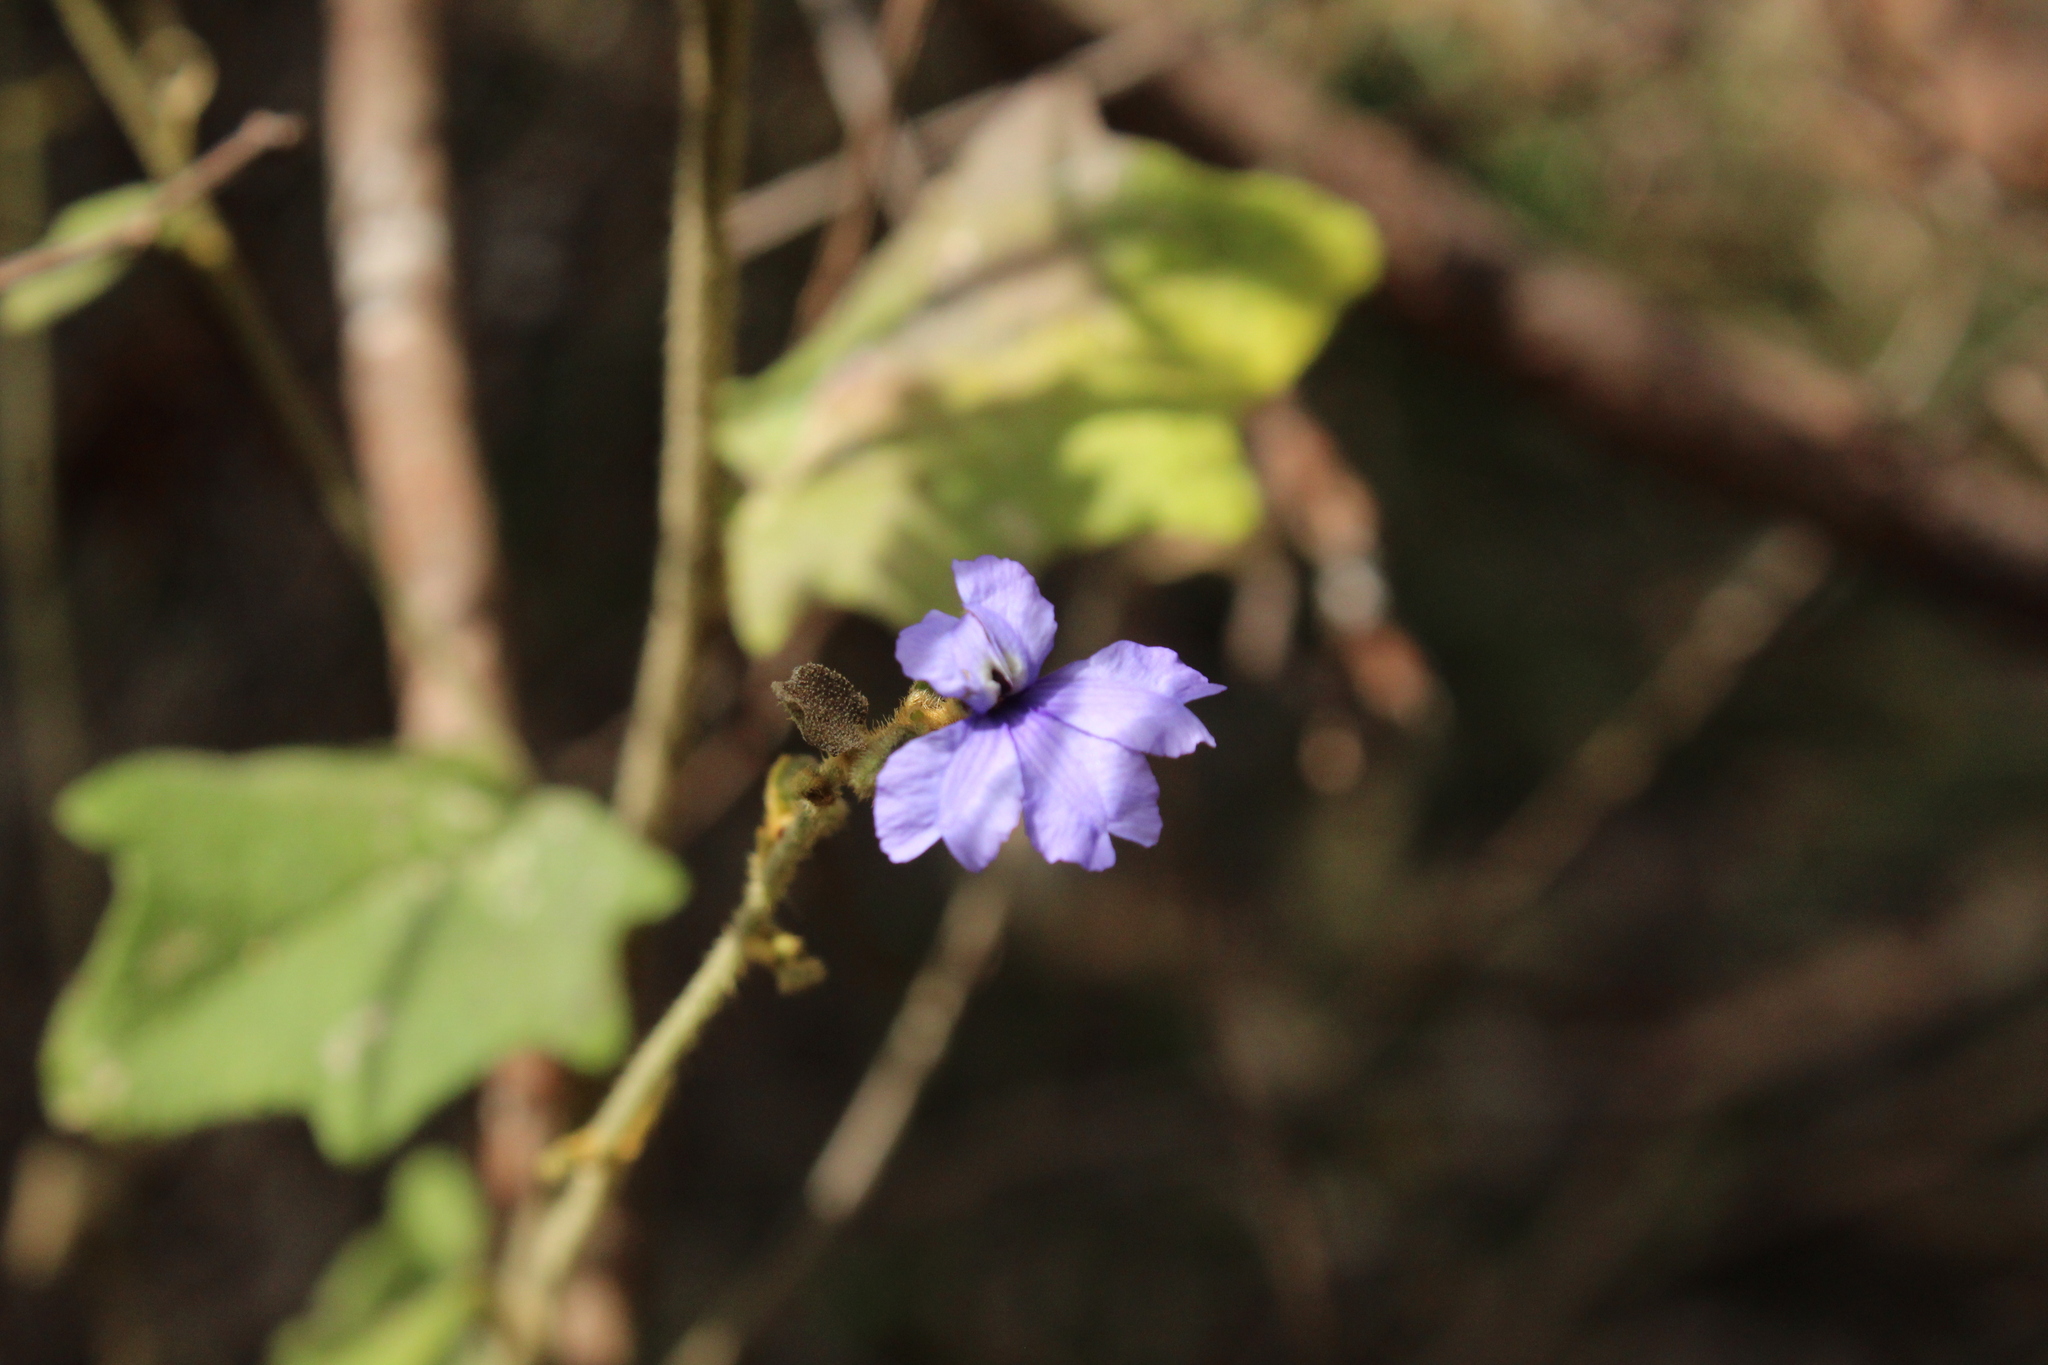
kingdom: Plantae
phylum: Tracheophyta
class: Magnoliopsida
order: Asterales
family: Goodeniaceae
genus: Dampiera
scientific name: Dampiera hederacea
